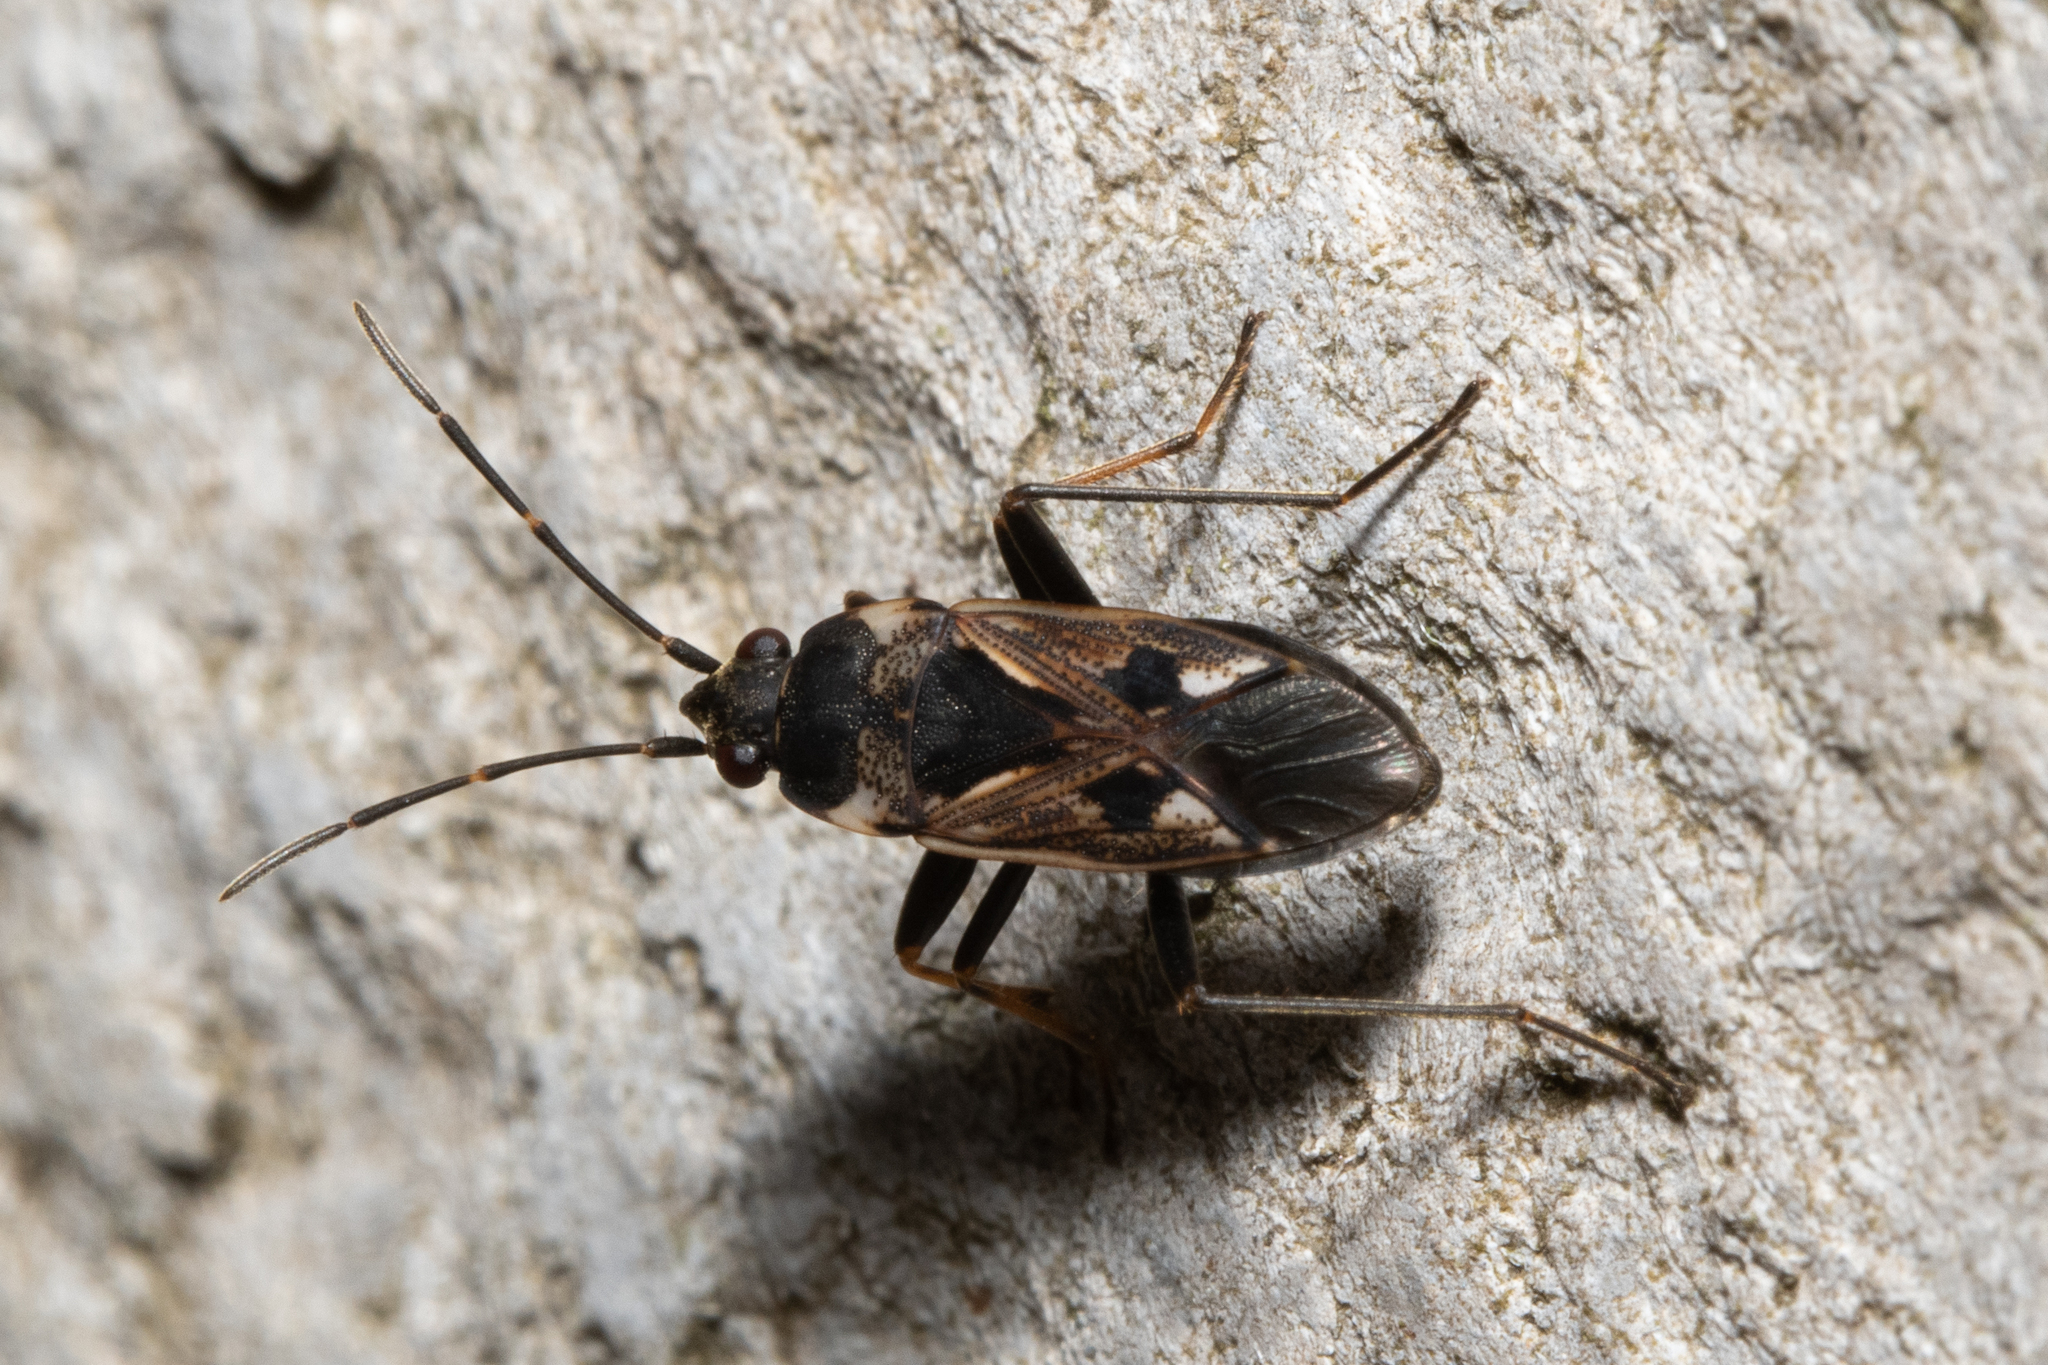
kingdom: Animalia
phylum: Arthropoda
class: Insecta
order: Hemiptera
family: Rhyparochromidae
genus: Rhyparochromus
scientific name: Rhyparochromus vulgaris
